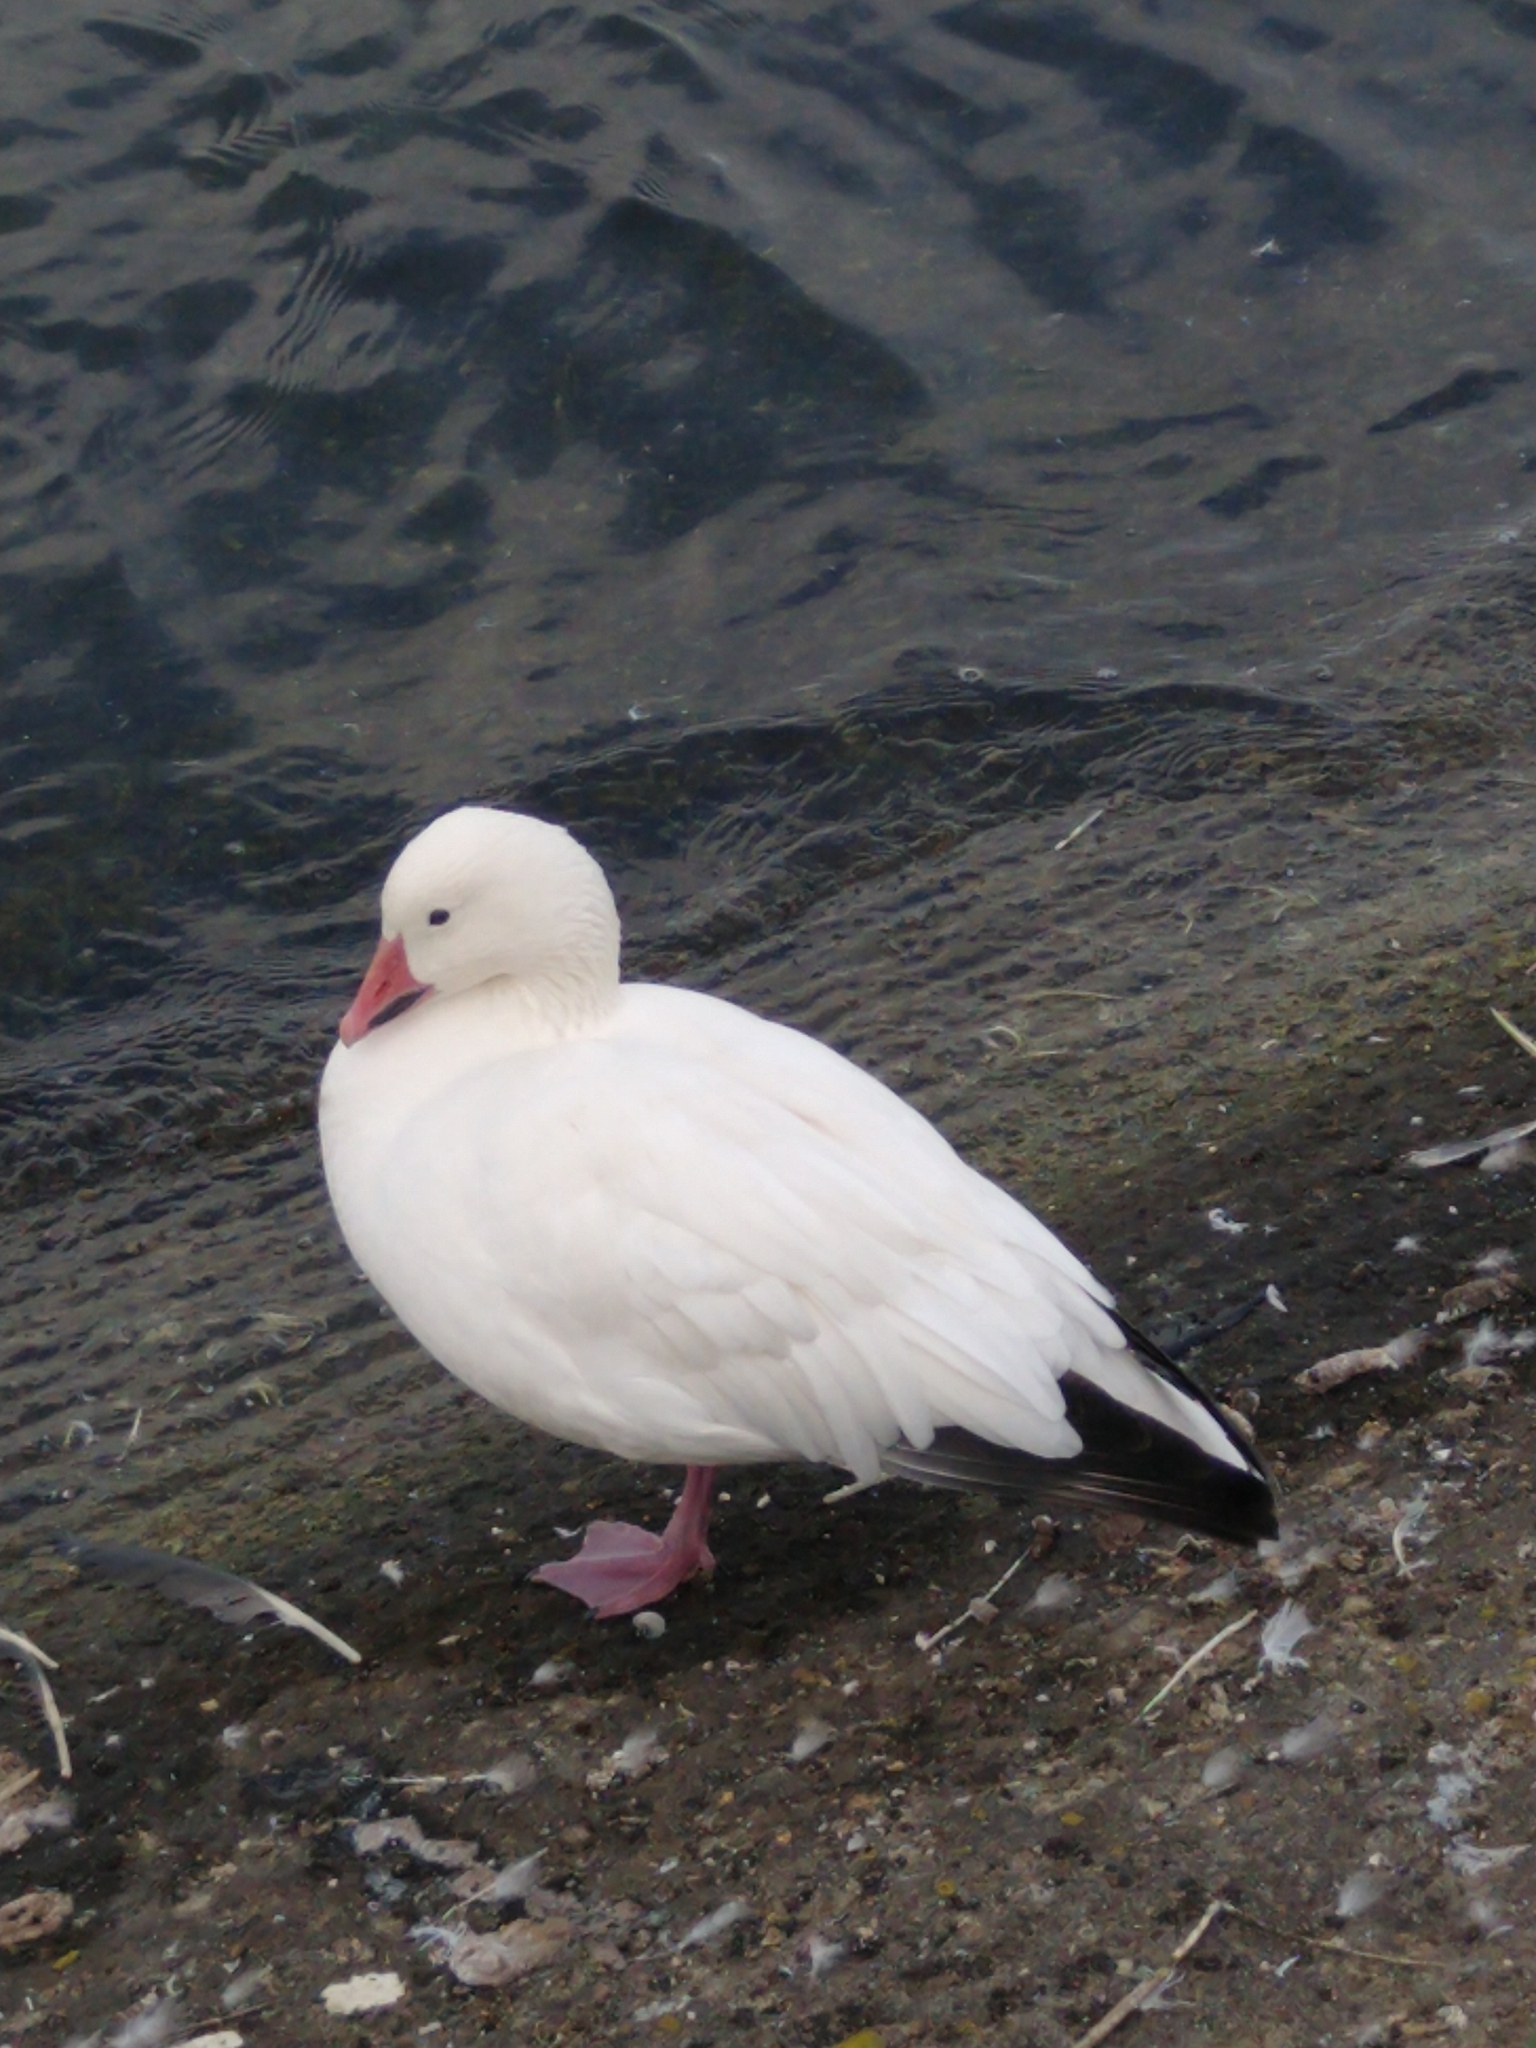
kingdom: Animalia
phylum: Chordata
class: Aves
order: Anseriformes
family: Anatidae
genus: Anser
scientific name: Anser caerulescens
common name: Snow goose
